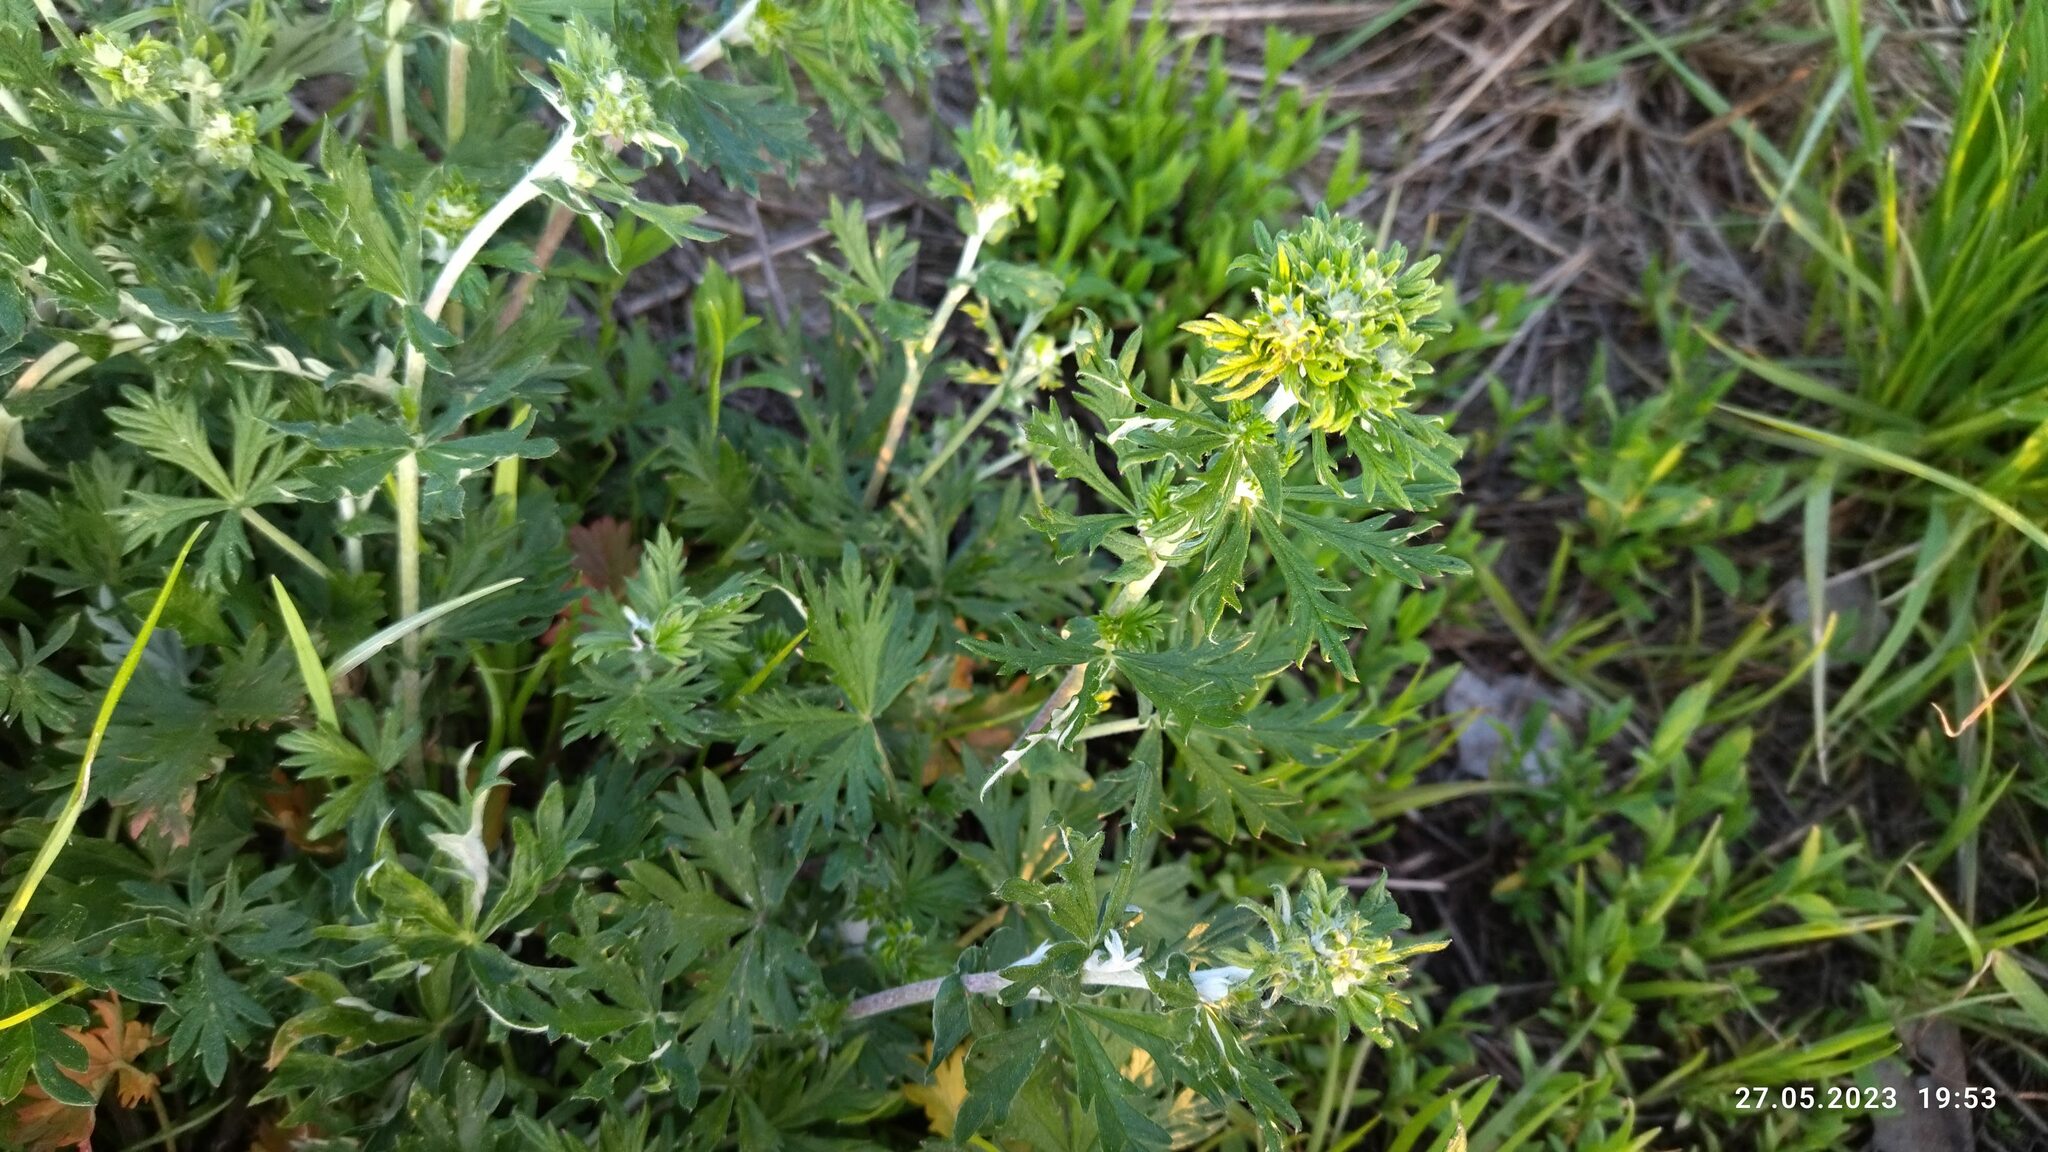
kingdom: Plantae
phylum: Tracheophyta
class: Magnoliopsida
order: Rosales
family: Rosaceae
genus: Potentilla
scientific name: Potentilla argentea
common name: Hoary cinquefoil
